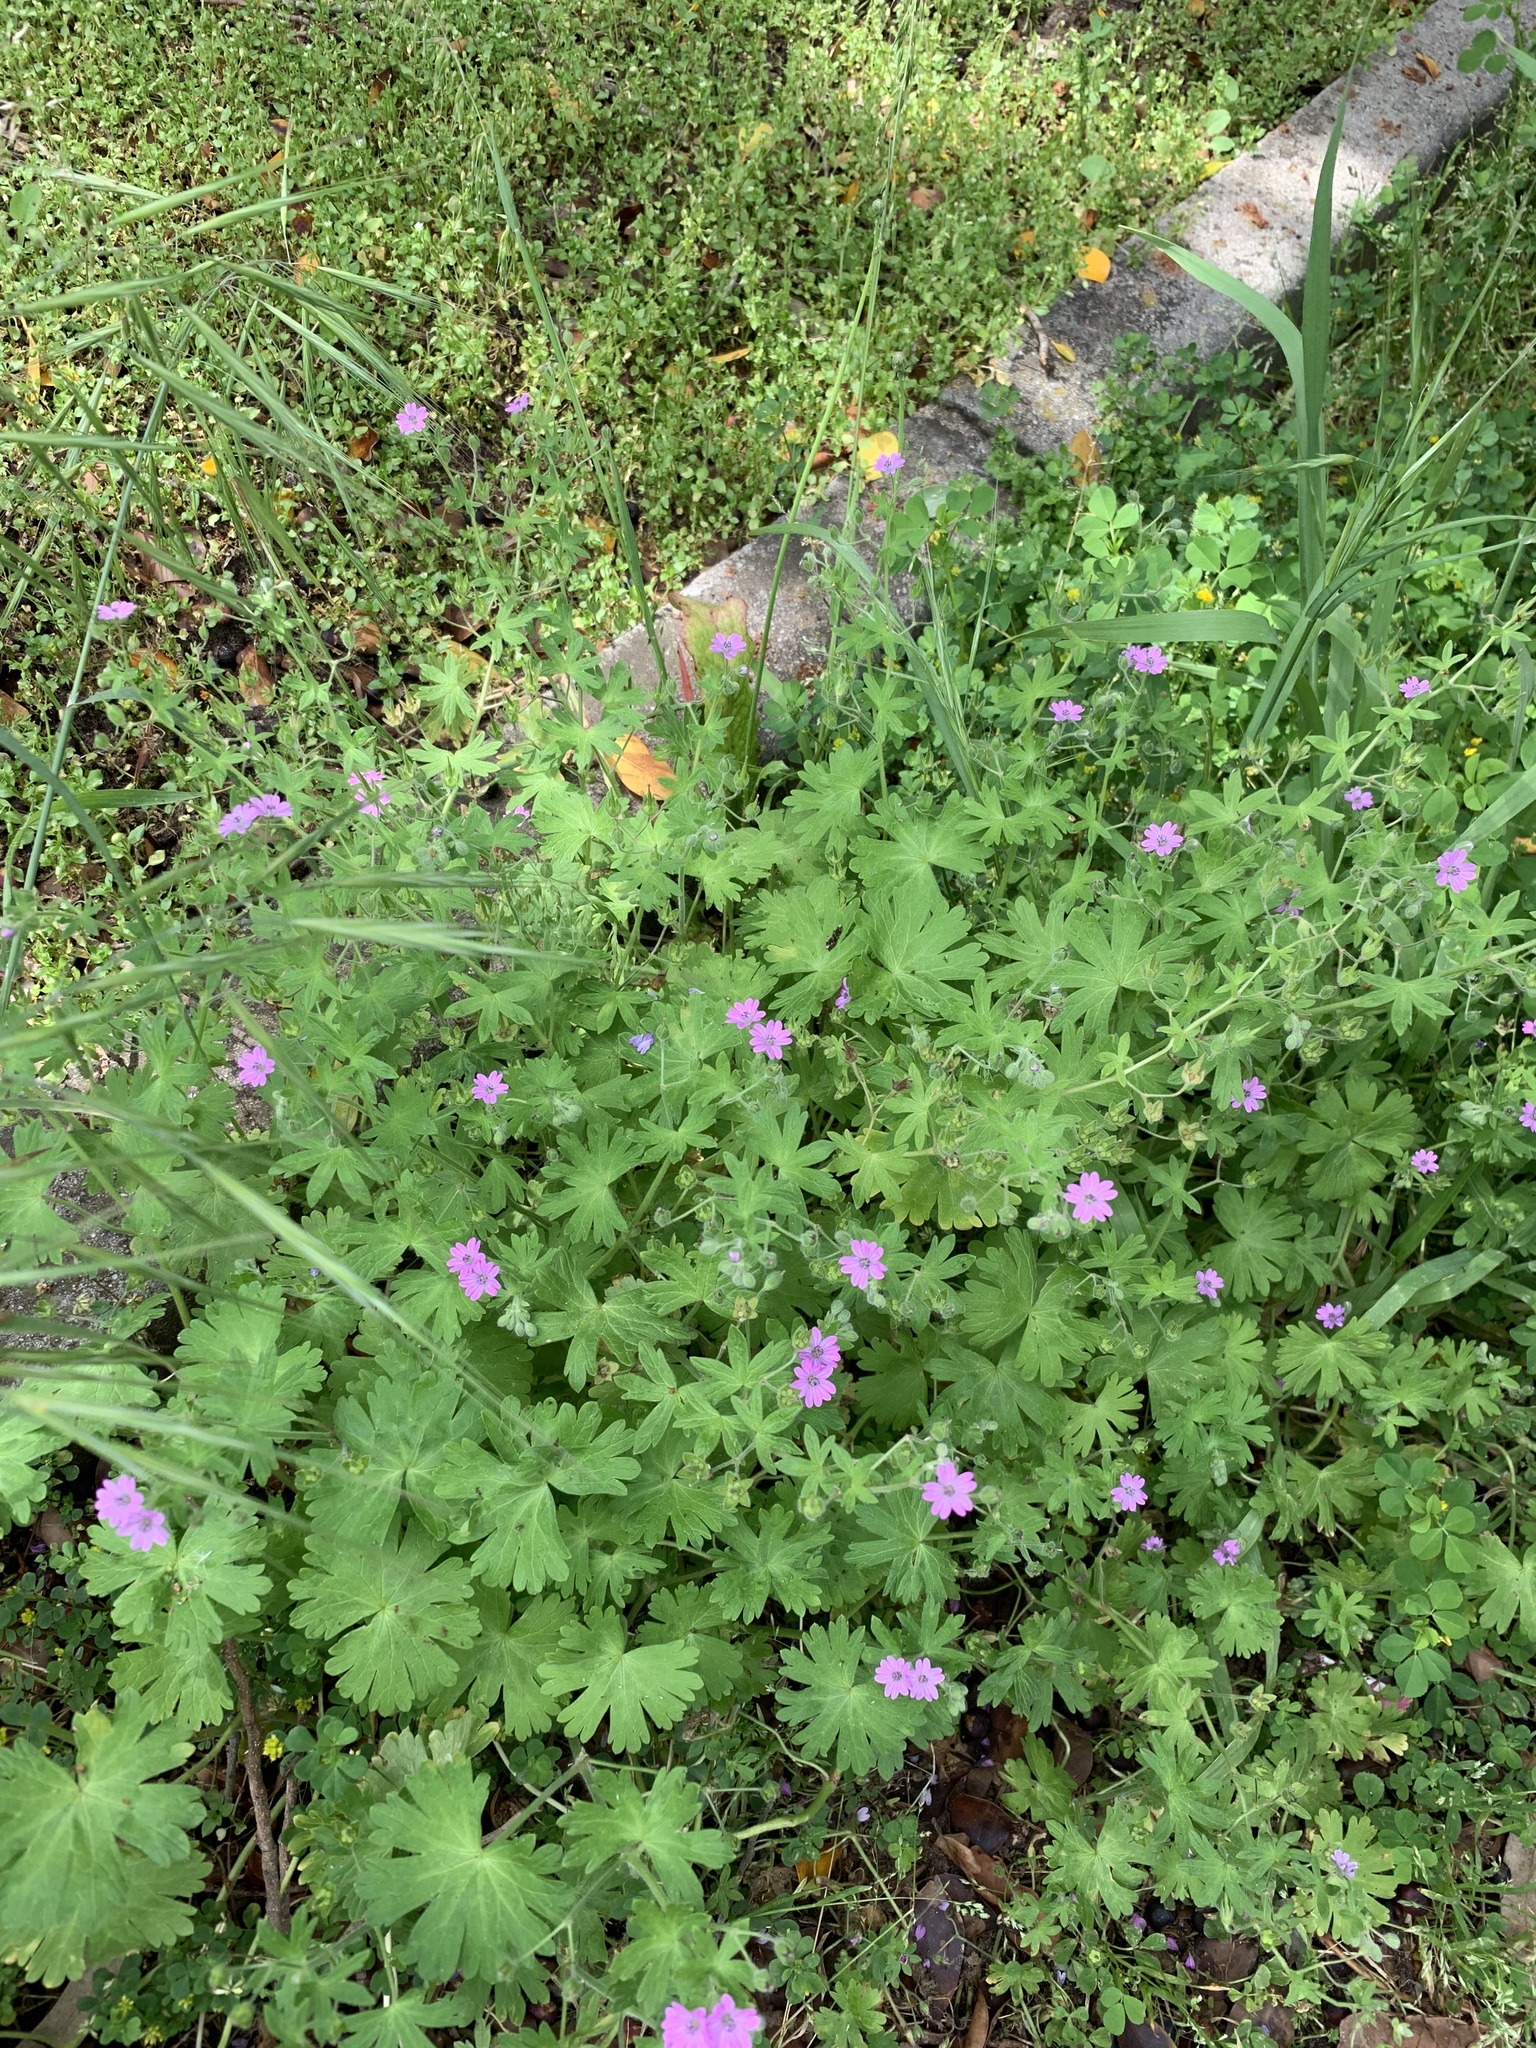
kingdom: Plantae
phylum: Tracheophyta
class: Magnoliopsida
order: Geraniales
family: Geraniaceae
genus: Geranium
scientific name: Geranium molle
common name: Dove's-foot crane's-bill
